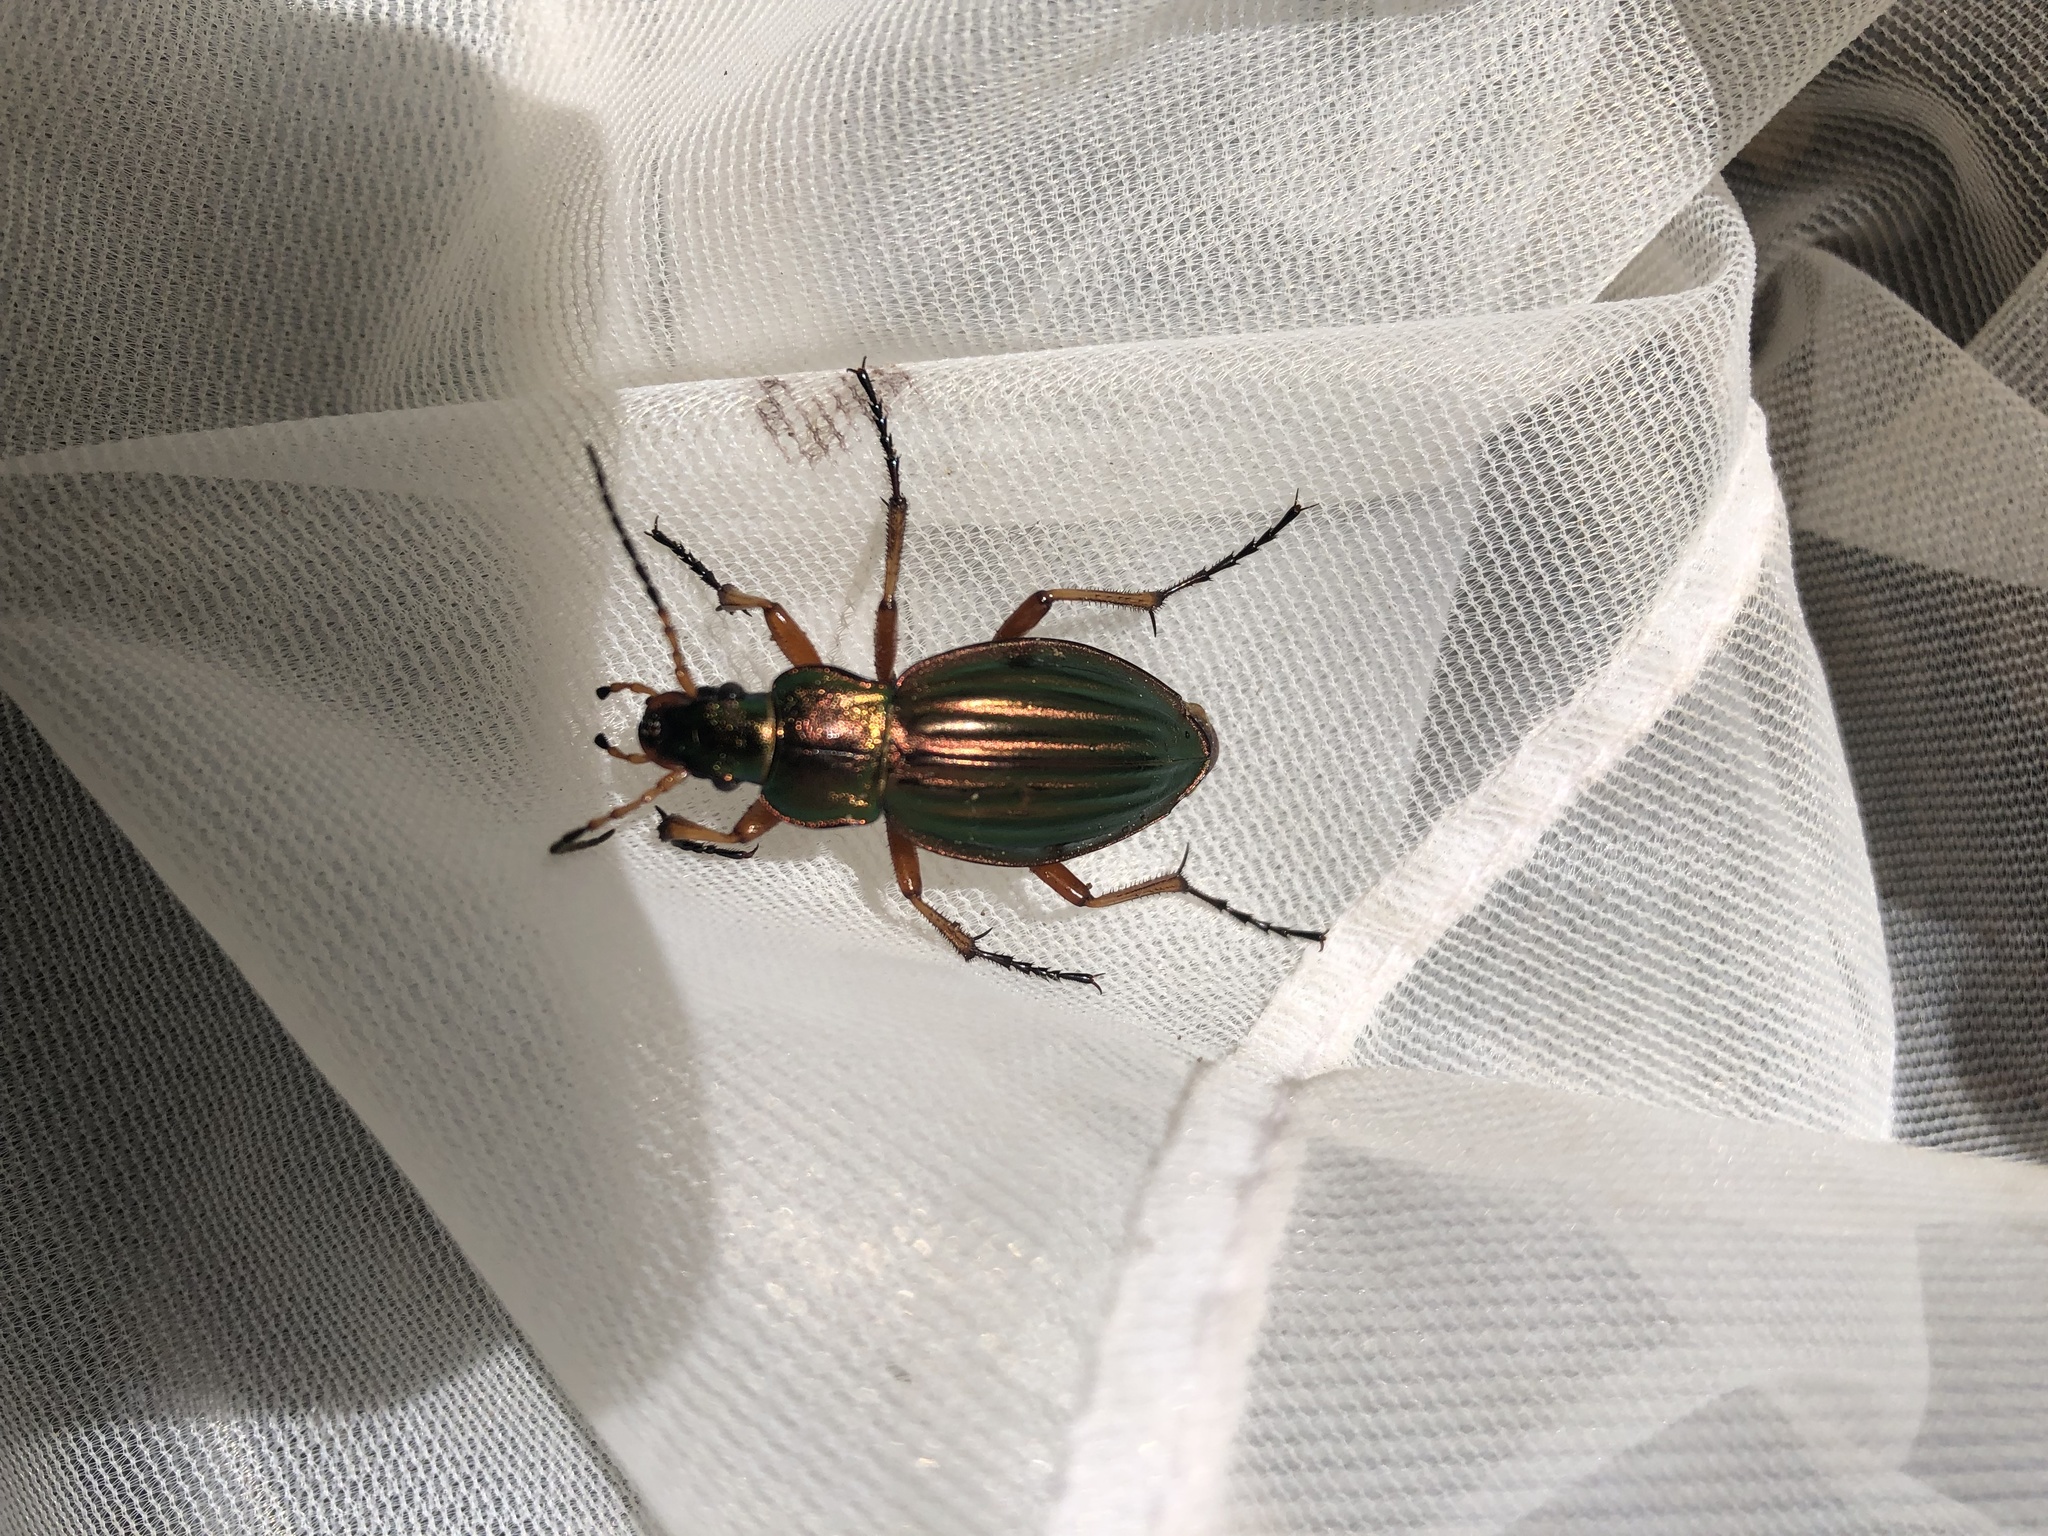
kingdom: Animalia
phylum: Arthropoda
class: Insecta
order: Coleoptera
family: Carabidae
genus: Carabus
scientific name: Carabus auratus
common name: Golden ground beetle
